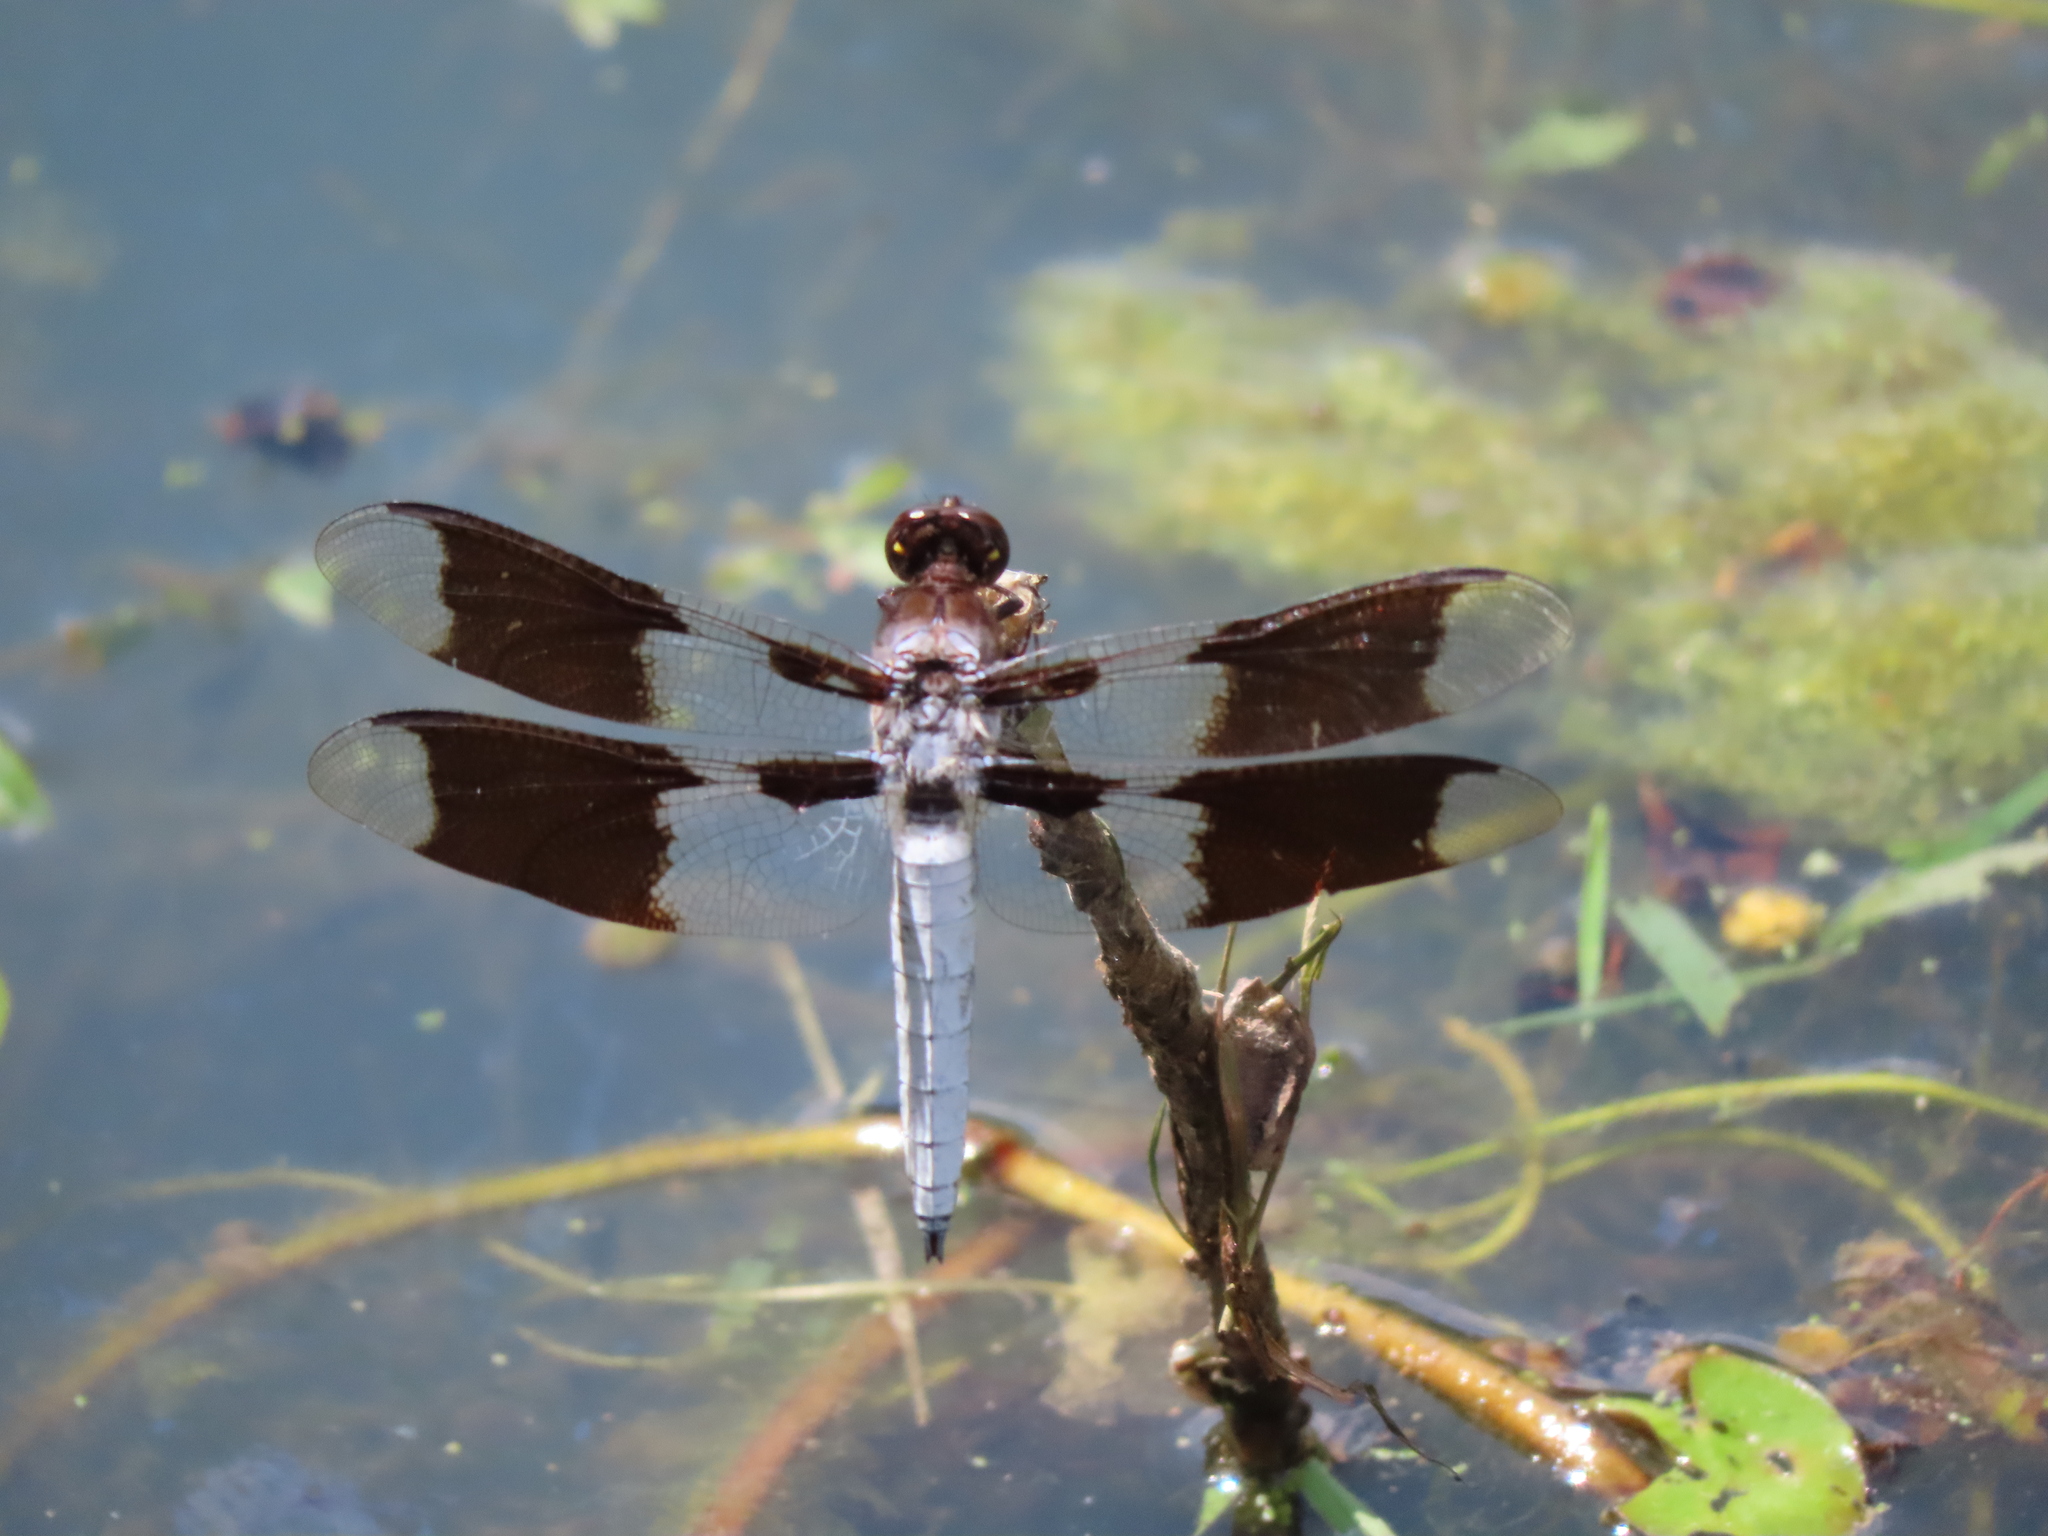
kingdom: Animalia
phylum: Arthropoda
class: Insecta
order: Odonata
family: Libellulidae
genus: Plathemis
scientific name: Plathemis lydia
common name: Common whitetail
